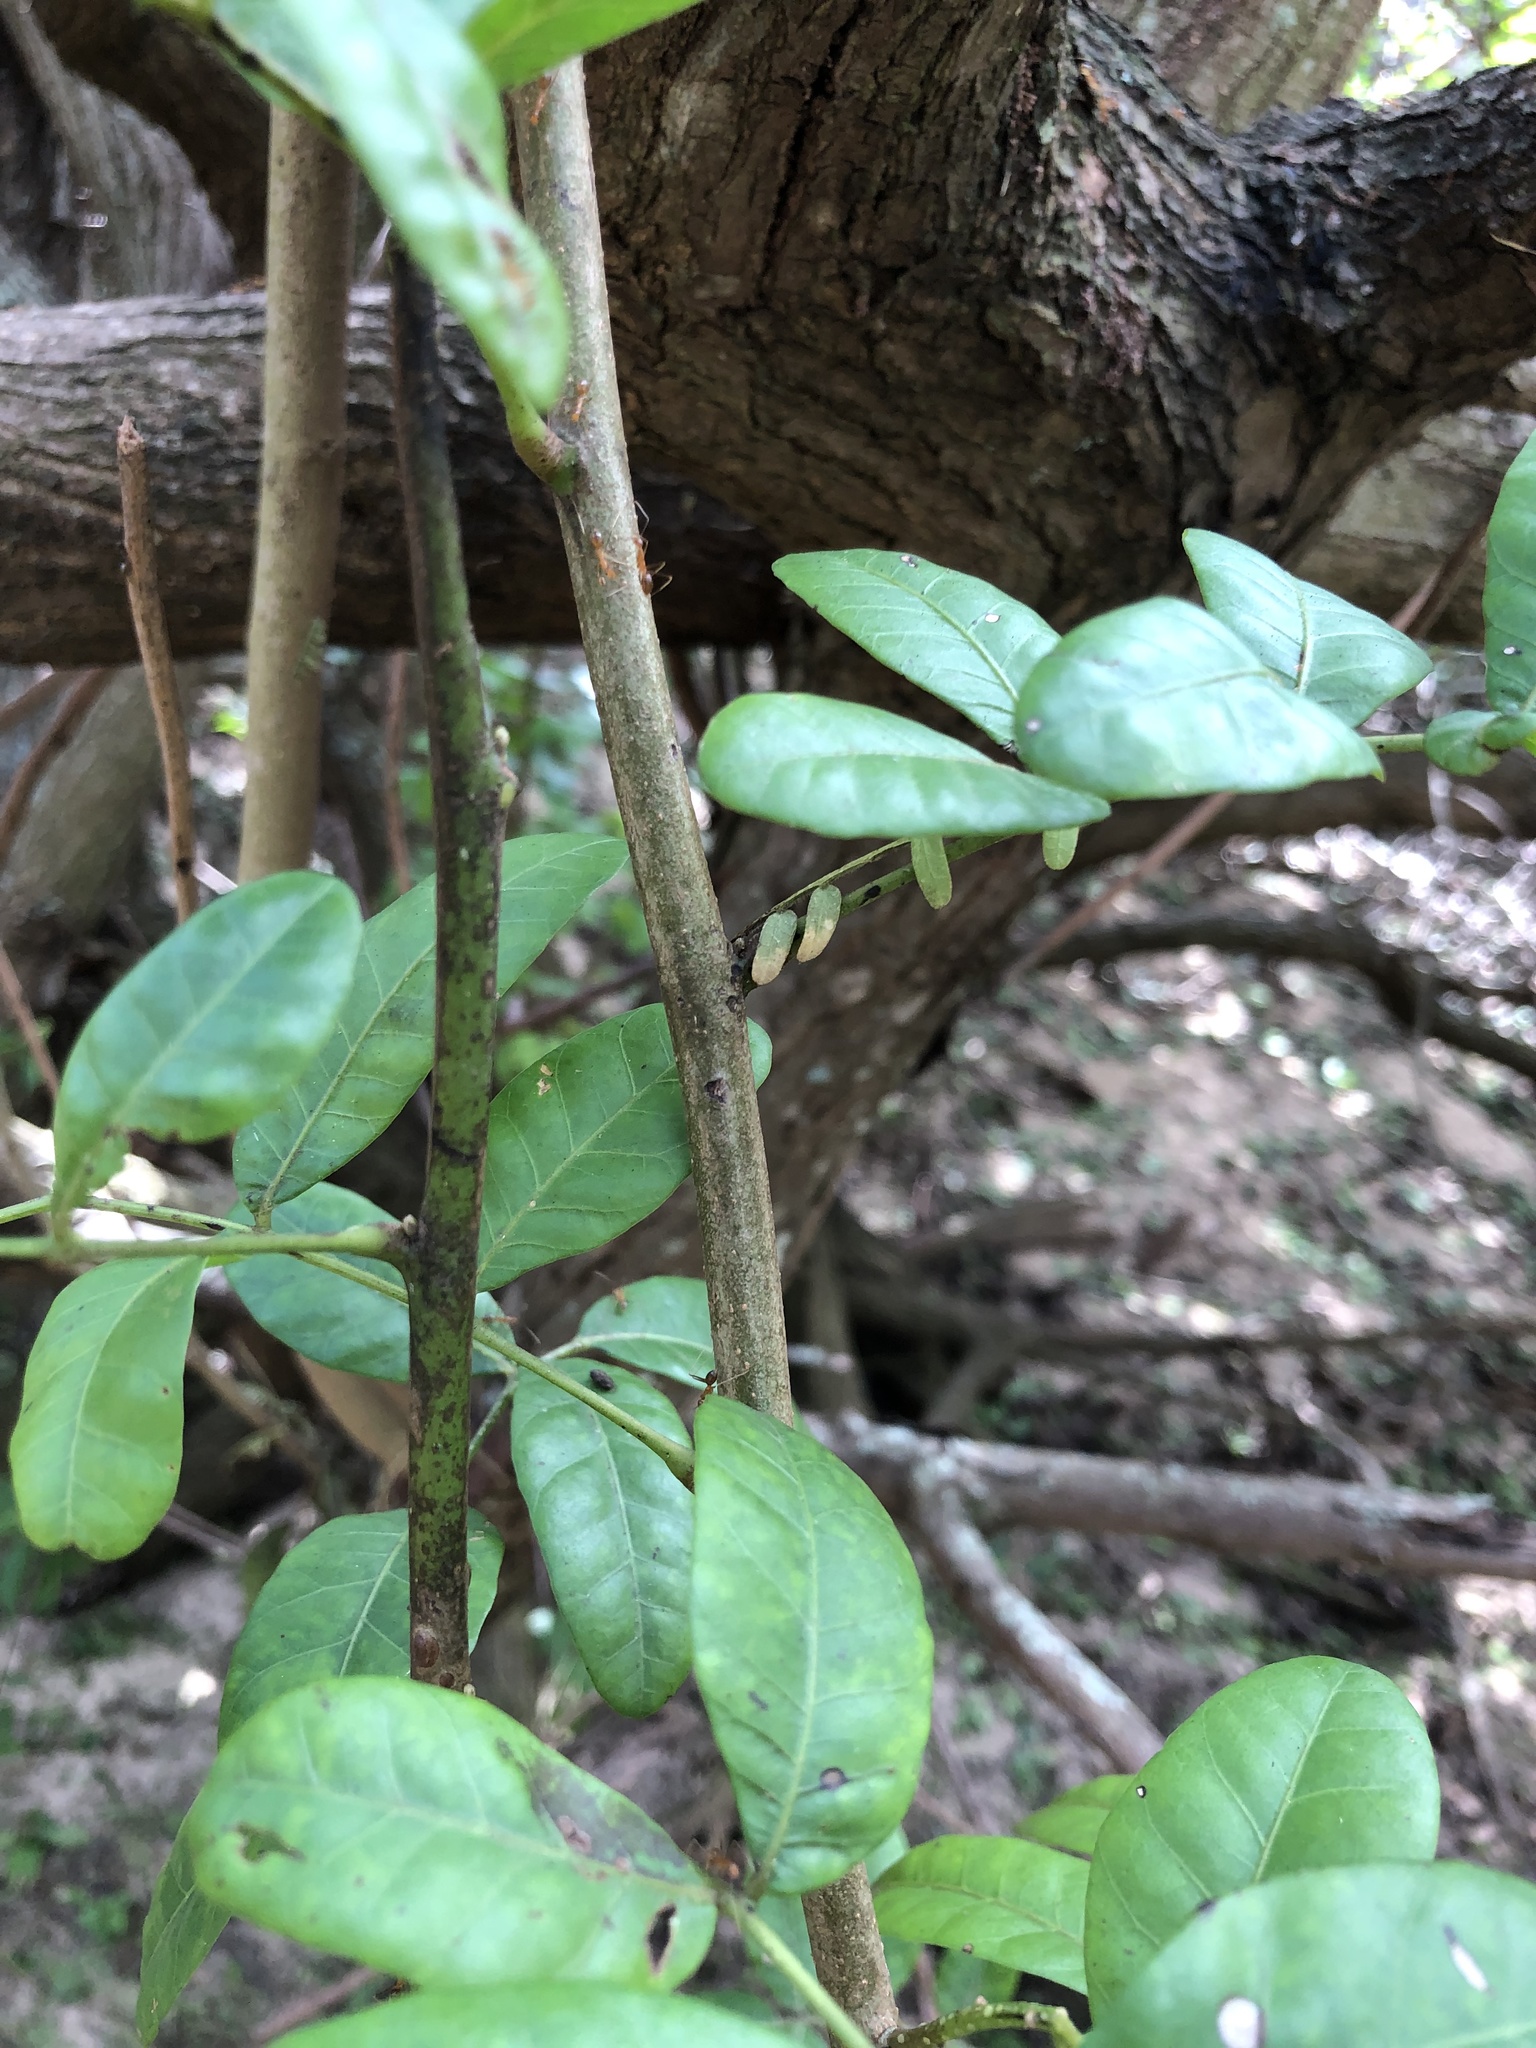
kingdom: Plantae
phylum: Tracheophyta
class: Magnoliopsida
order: Sapindales
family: Anacardiaceae
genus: Schinus
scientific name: Schinus terebinthifolia
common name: Brazilian peppertree
